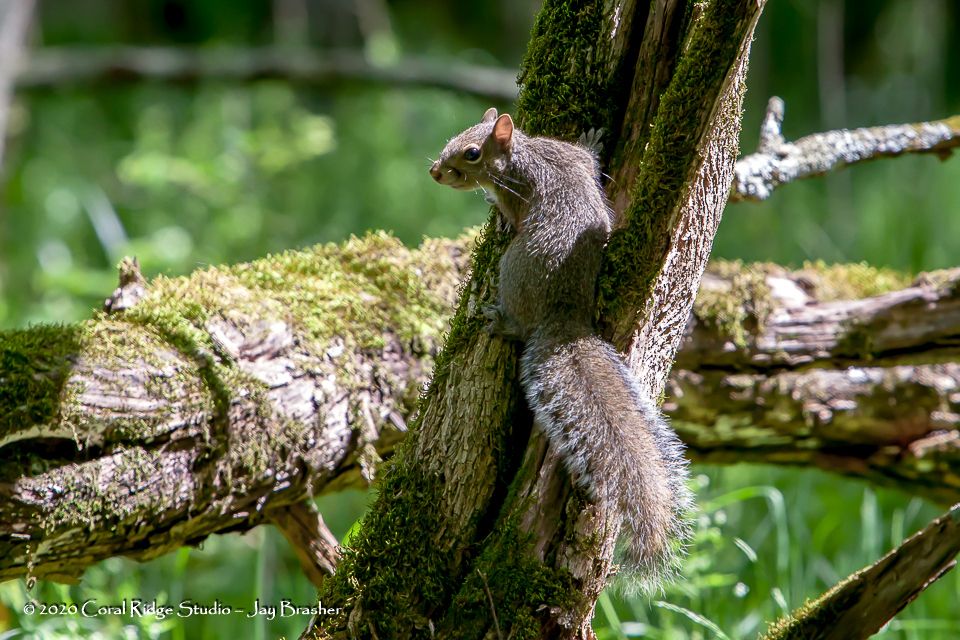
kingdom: Animalia
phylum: Chordata
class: Mammalia
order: Rodentia
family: Sciuridae
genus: Sciurus
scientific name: Sciurus carolinensis
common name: Eastern gray squirrel
